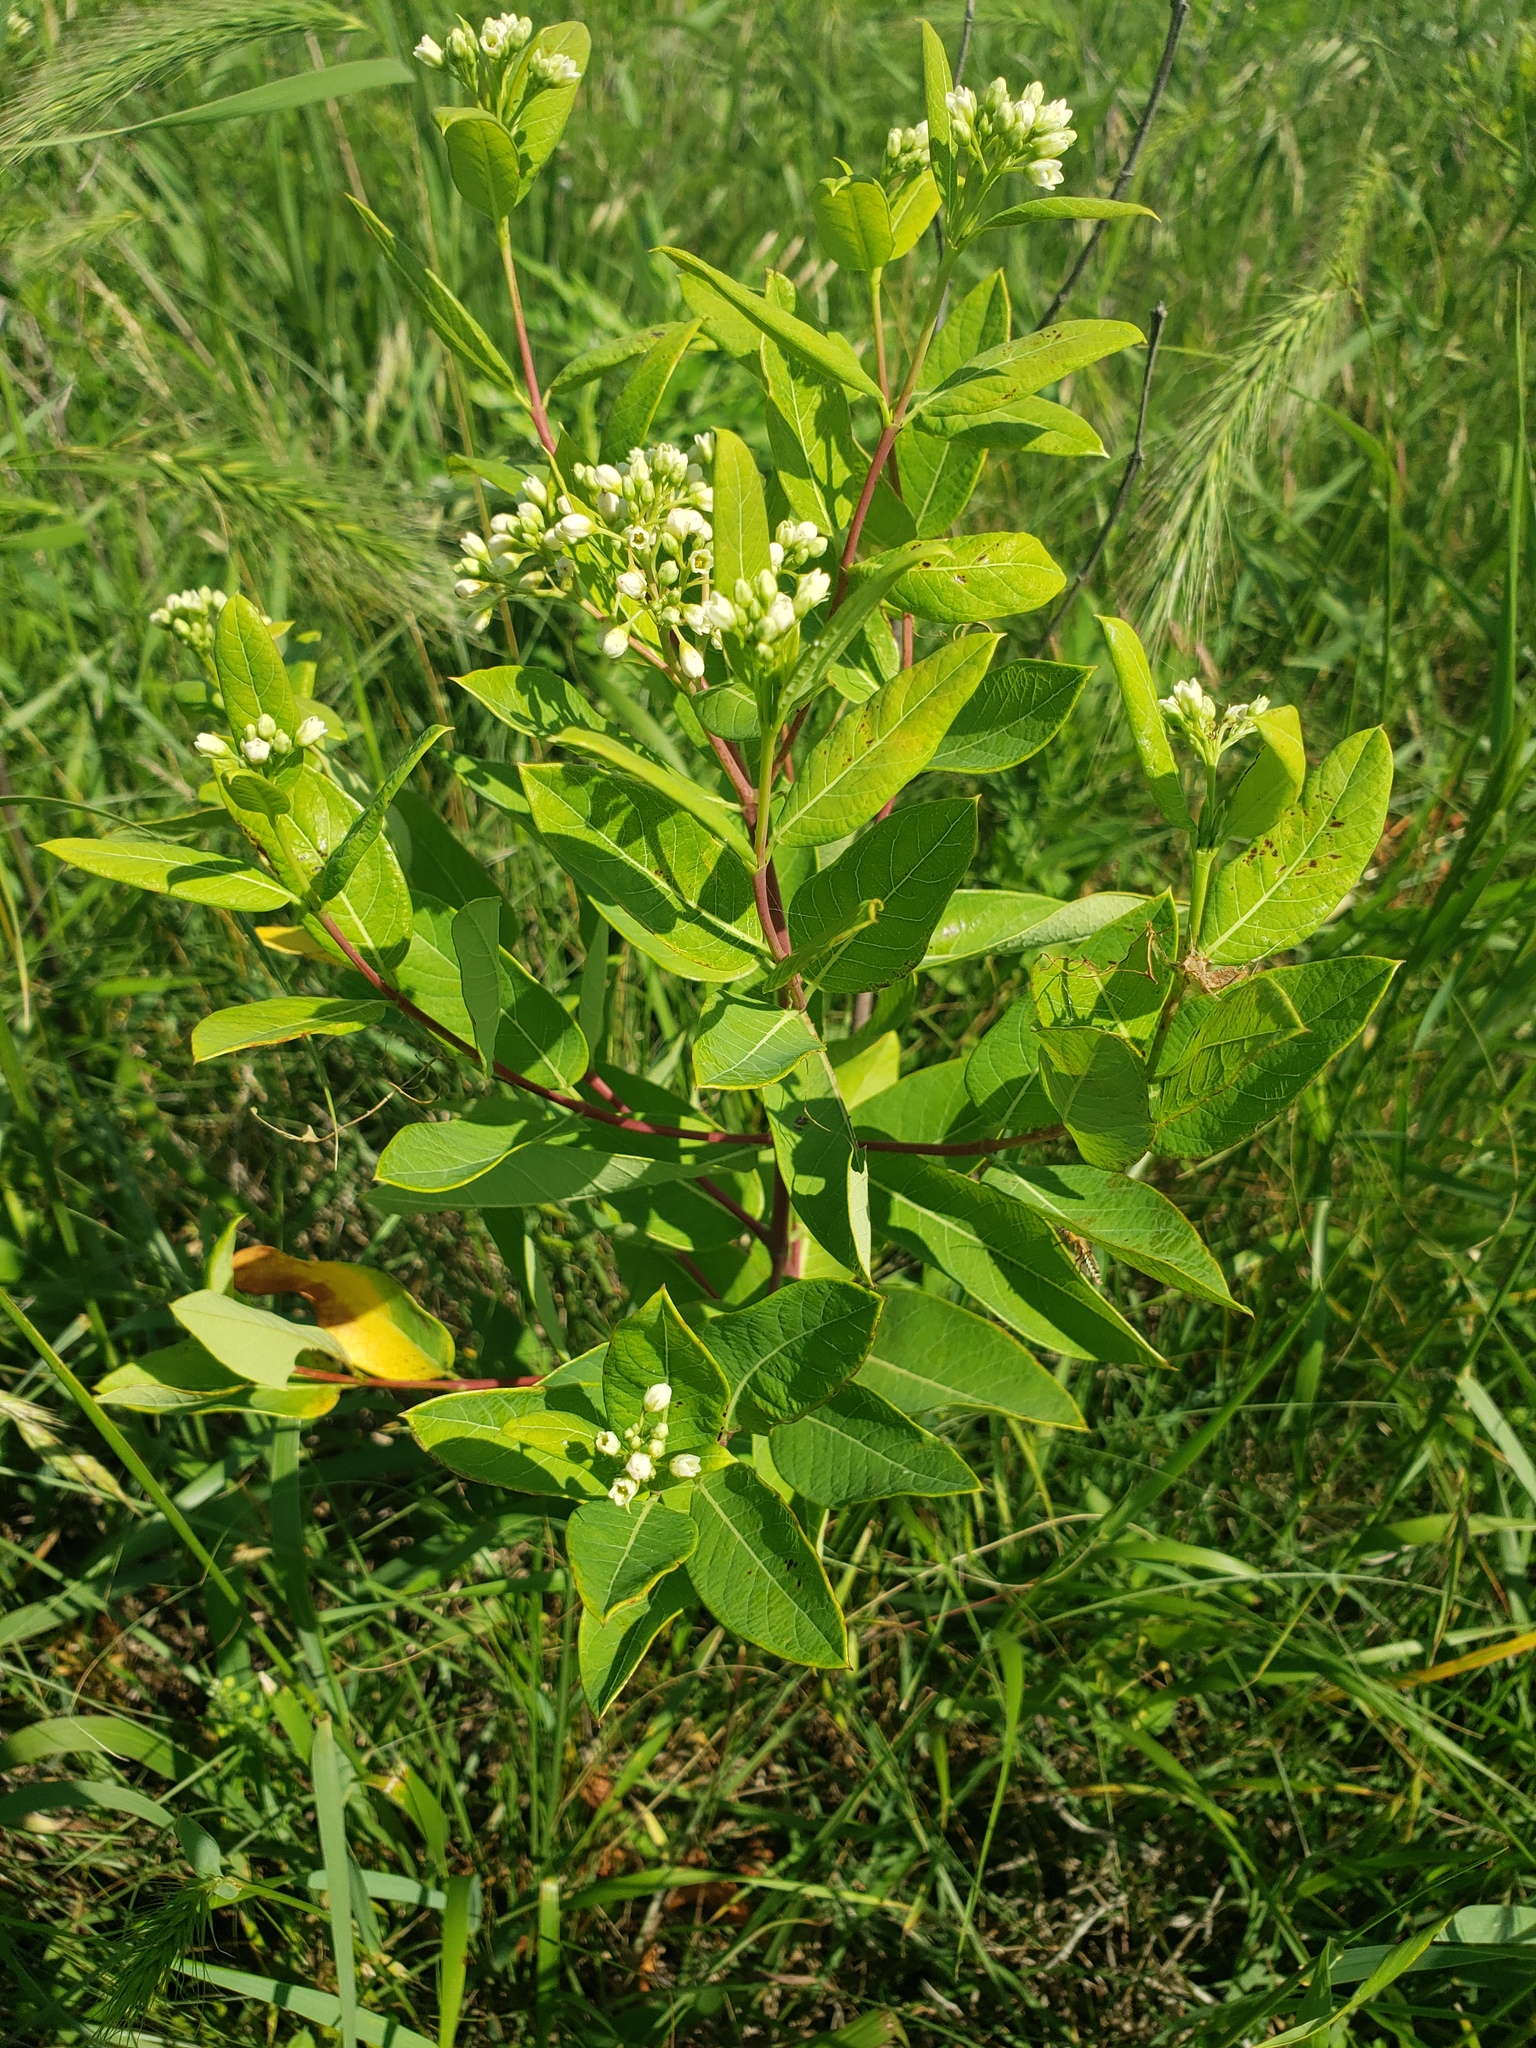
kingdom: Plantae
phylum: Tracheophyta
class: Magnoliopsida
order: Gentianales
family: Apocynaceae
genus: Apocynum
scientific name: Apocynum cannabinum
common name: Hemp dogbane
